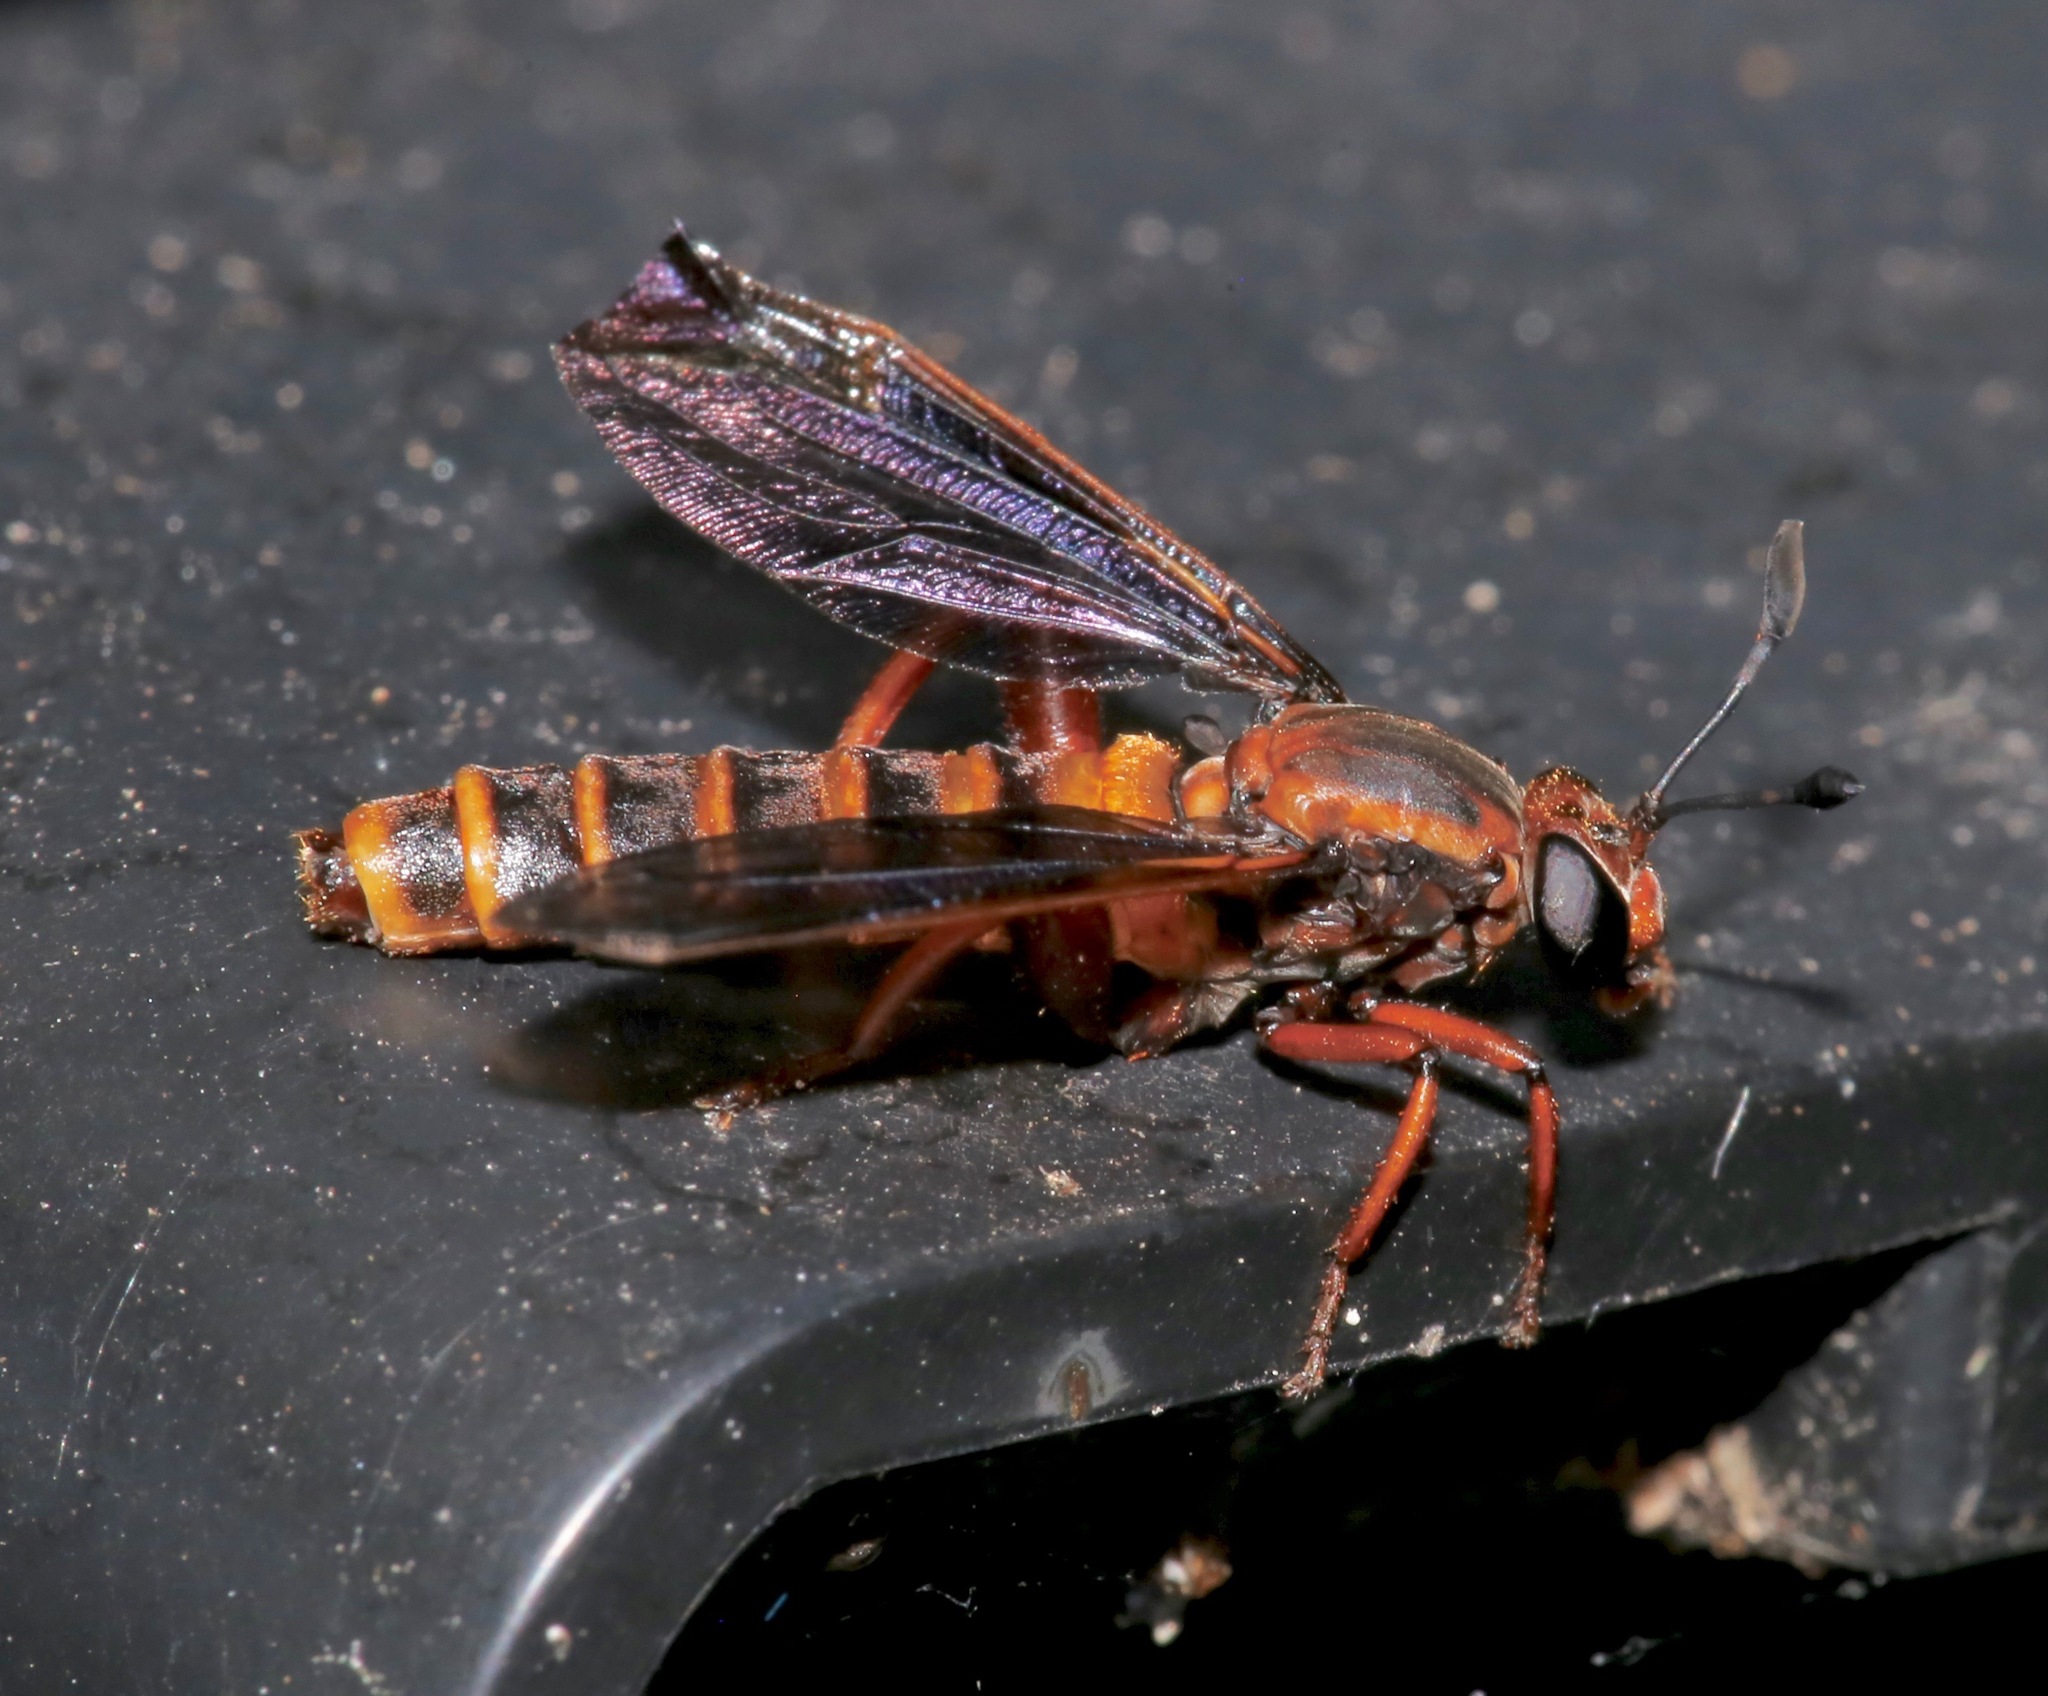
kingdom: Animalia
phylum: Arthropoda
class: Insecta
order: Diptera
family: Mydidae
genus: Phyllomydas
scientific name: Phyllomydas parvulus
